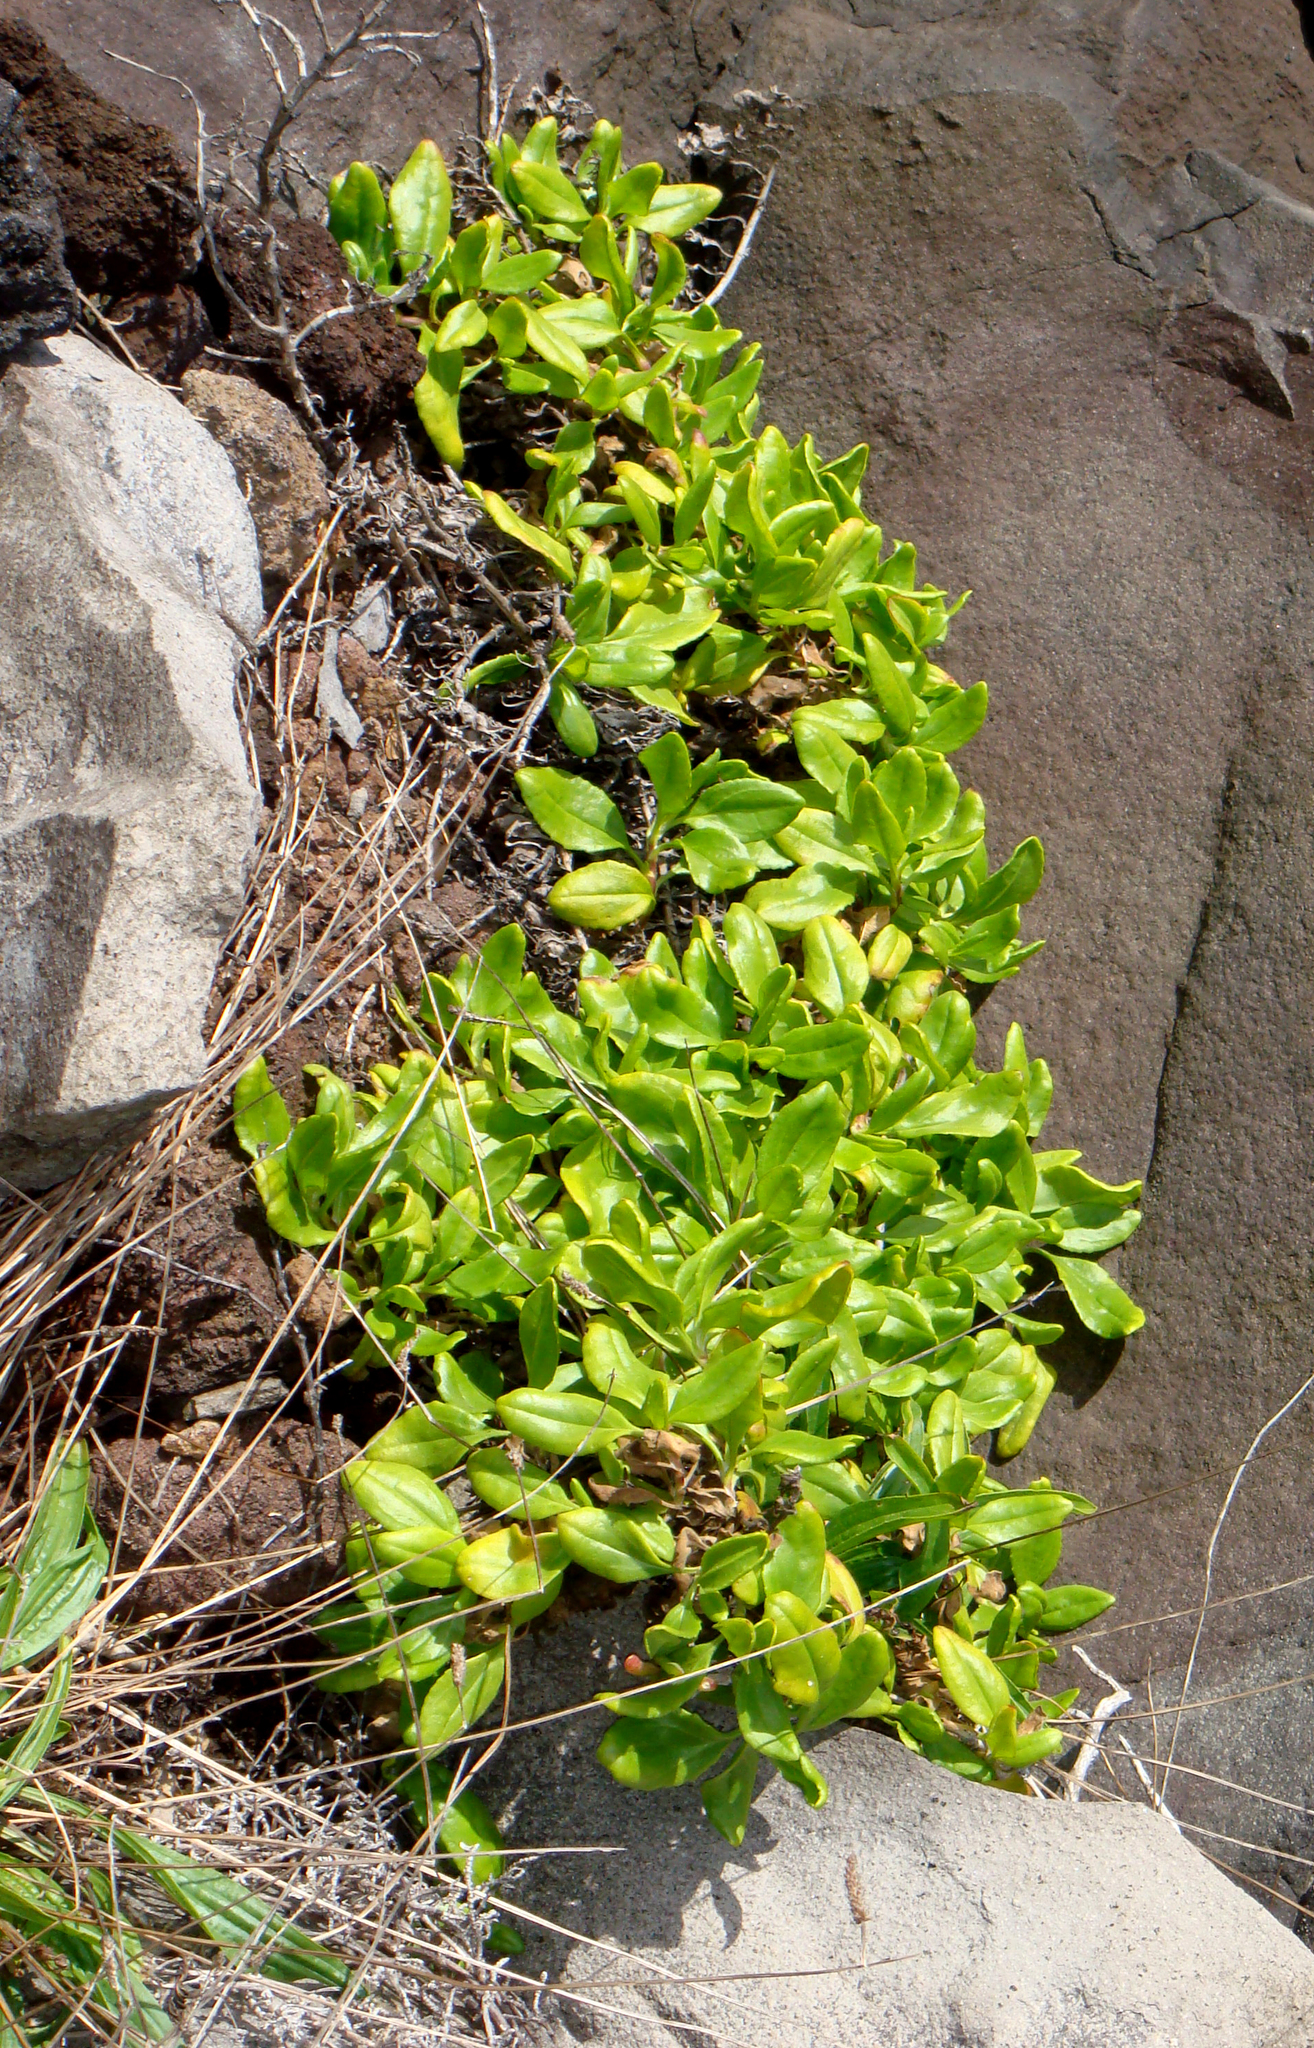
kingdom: Plantae
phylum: Tracheophyta
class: Magnoliopsida
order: Asterales
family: Goodeniaceae
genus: Scaevola
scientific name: Scaevola gracilis
